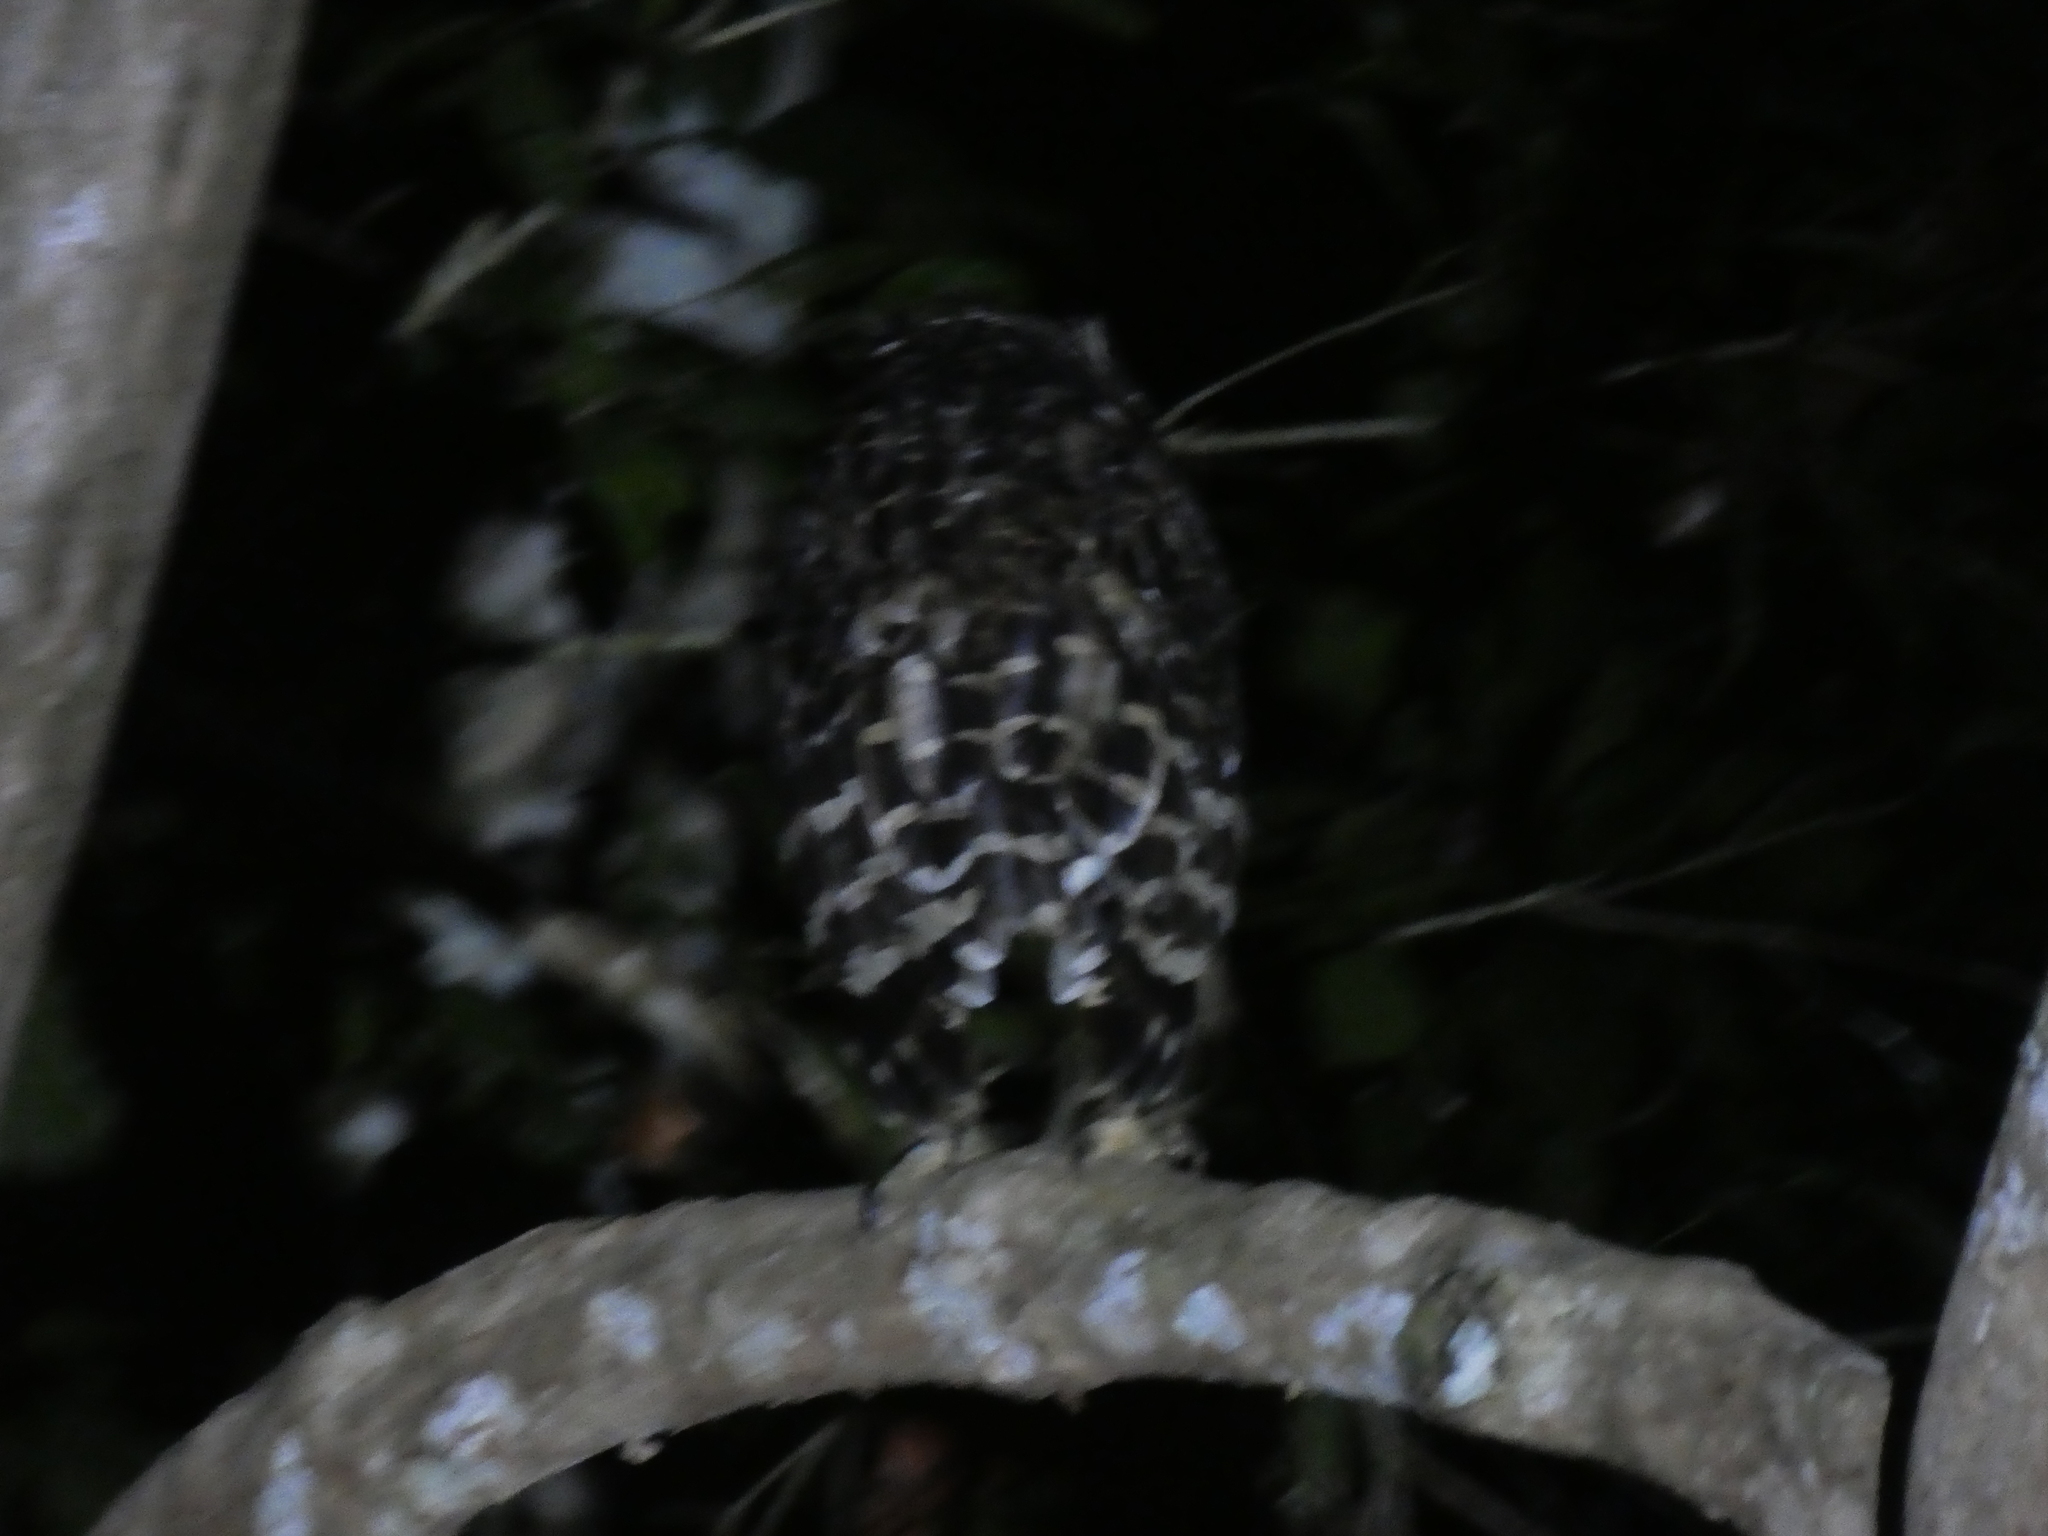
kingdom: Animalia
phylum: Chordata
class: Aves
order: Strigiformes
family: Strigidae
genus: Ketupa
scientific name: Ketupa ketupu
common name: Buffy fish-owl
